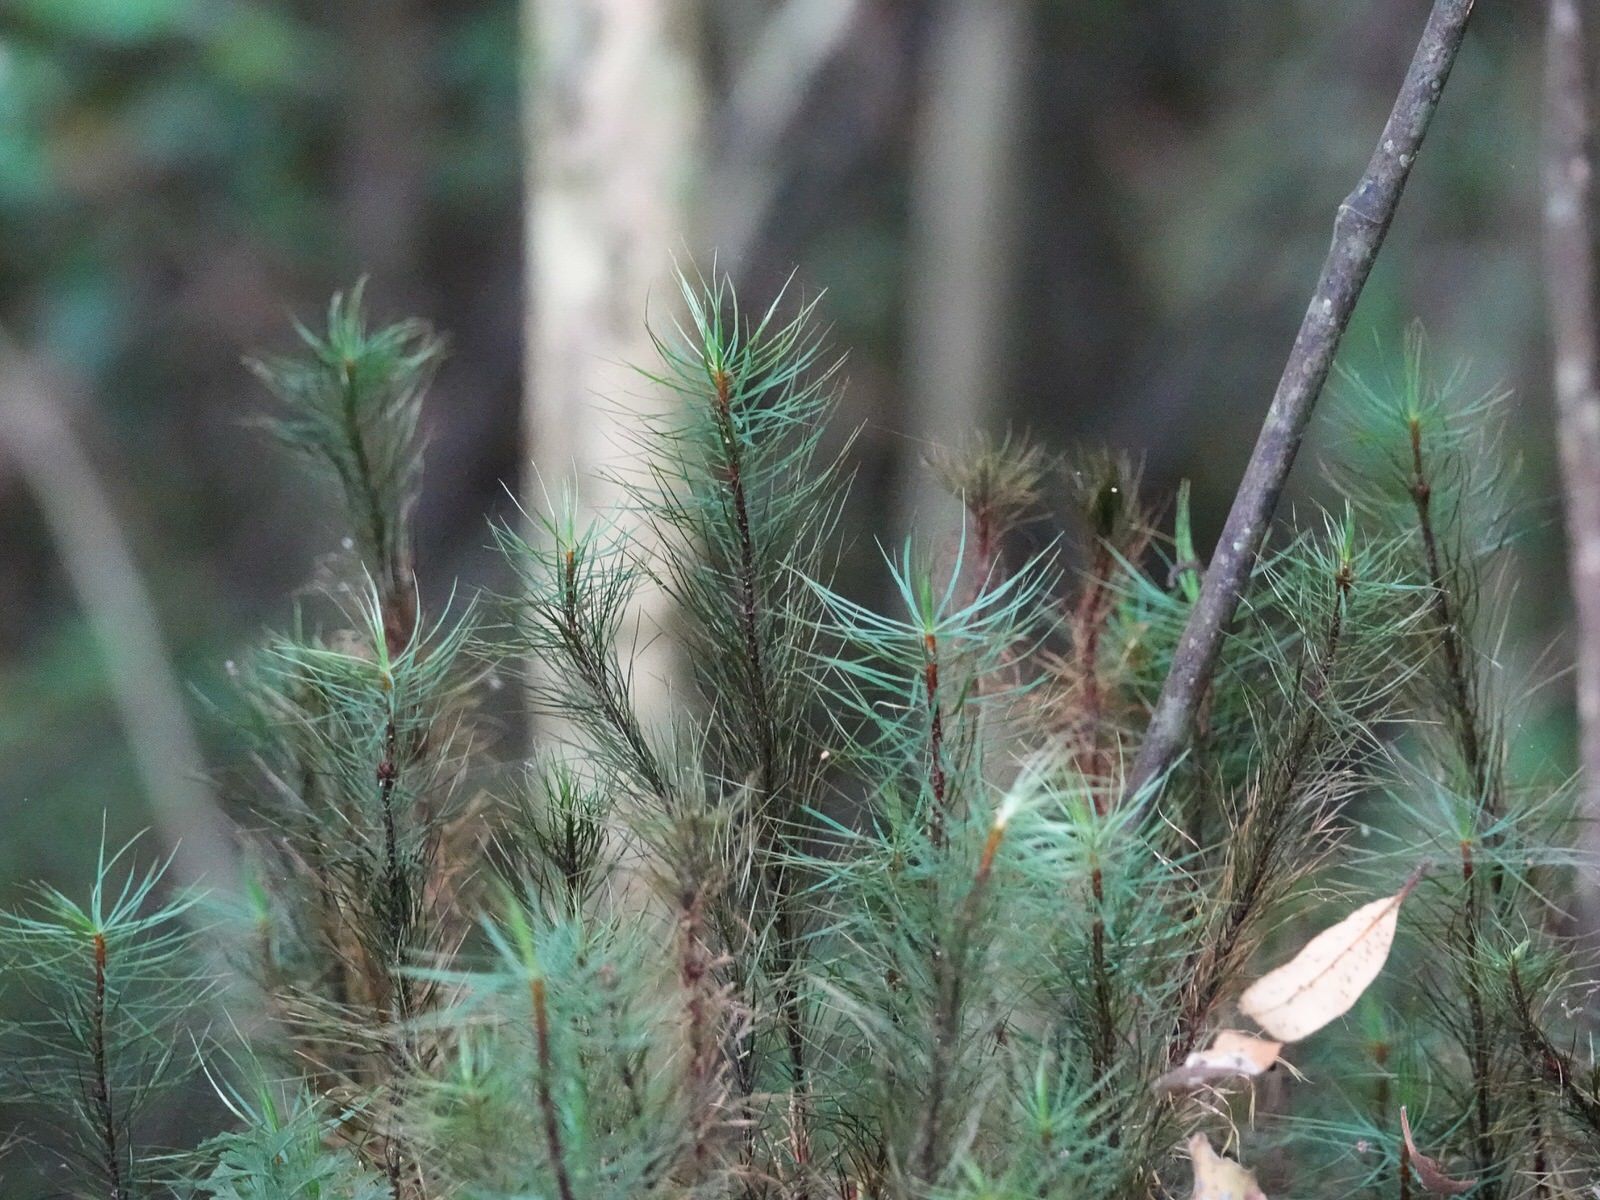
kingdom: Plantae
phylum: Bryophyta
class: Polytrichopsida
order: Polytrichales
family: Polytrichaceae
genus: Dawsonia
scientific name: Dawsonia superba
